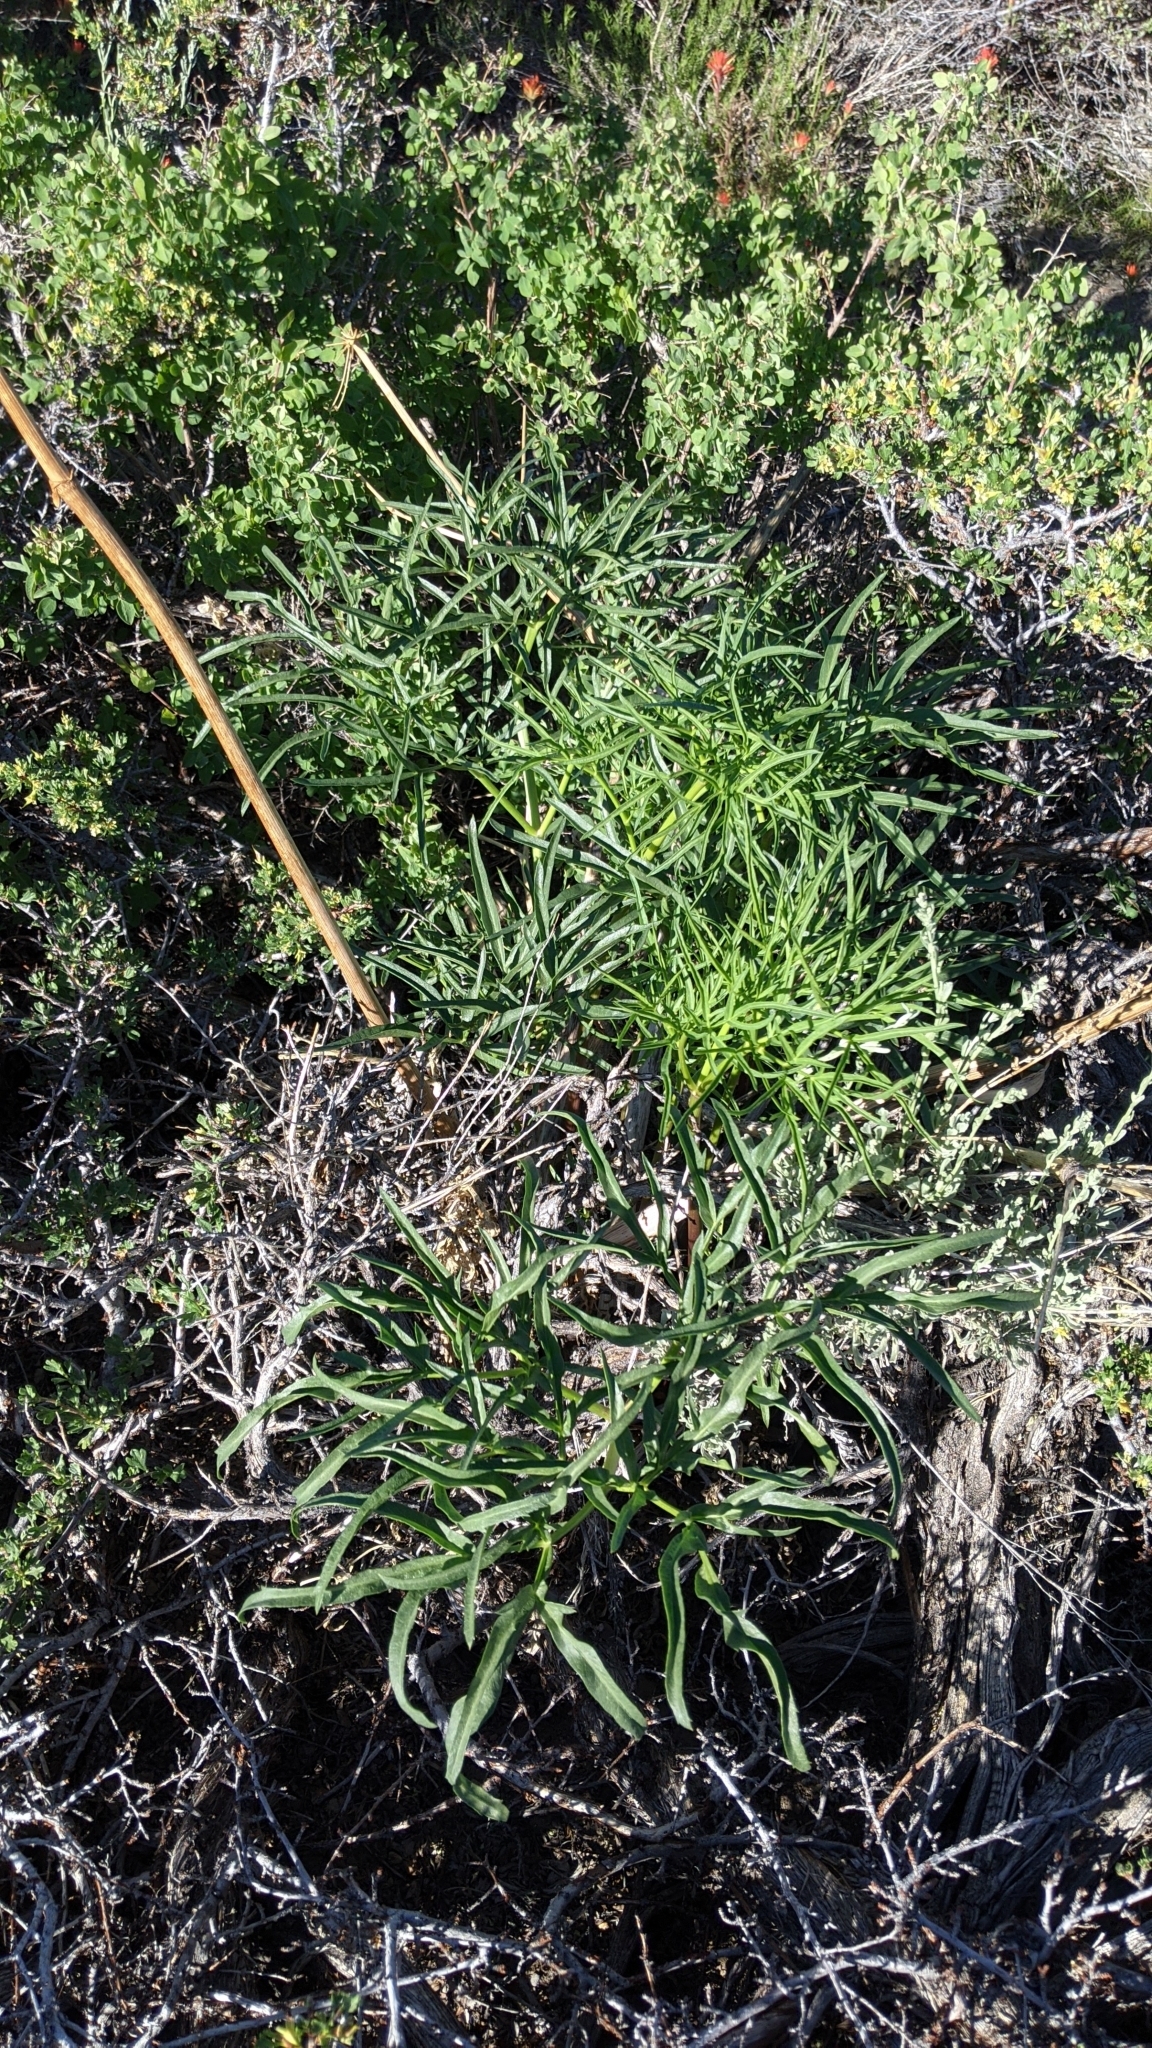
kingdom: Plantae
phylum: Tracheophyta
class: Magnoliopsida
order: Apiales
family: Apiaceae
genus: Angelica
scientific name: Angelica lineariloba
